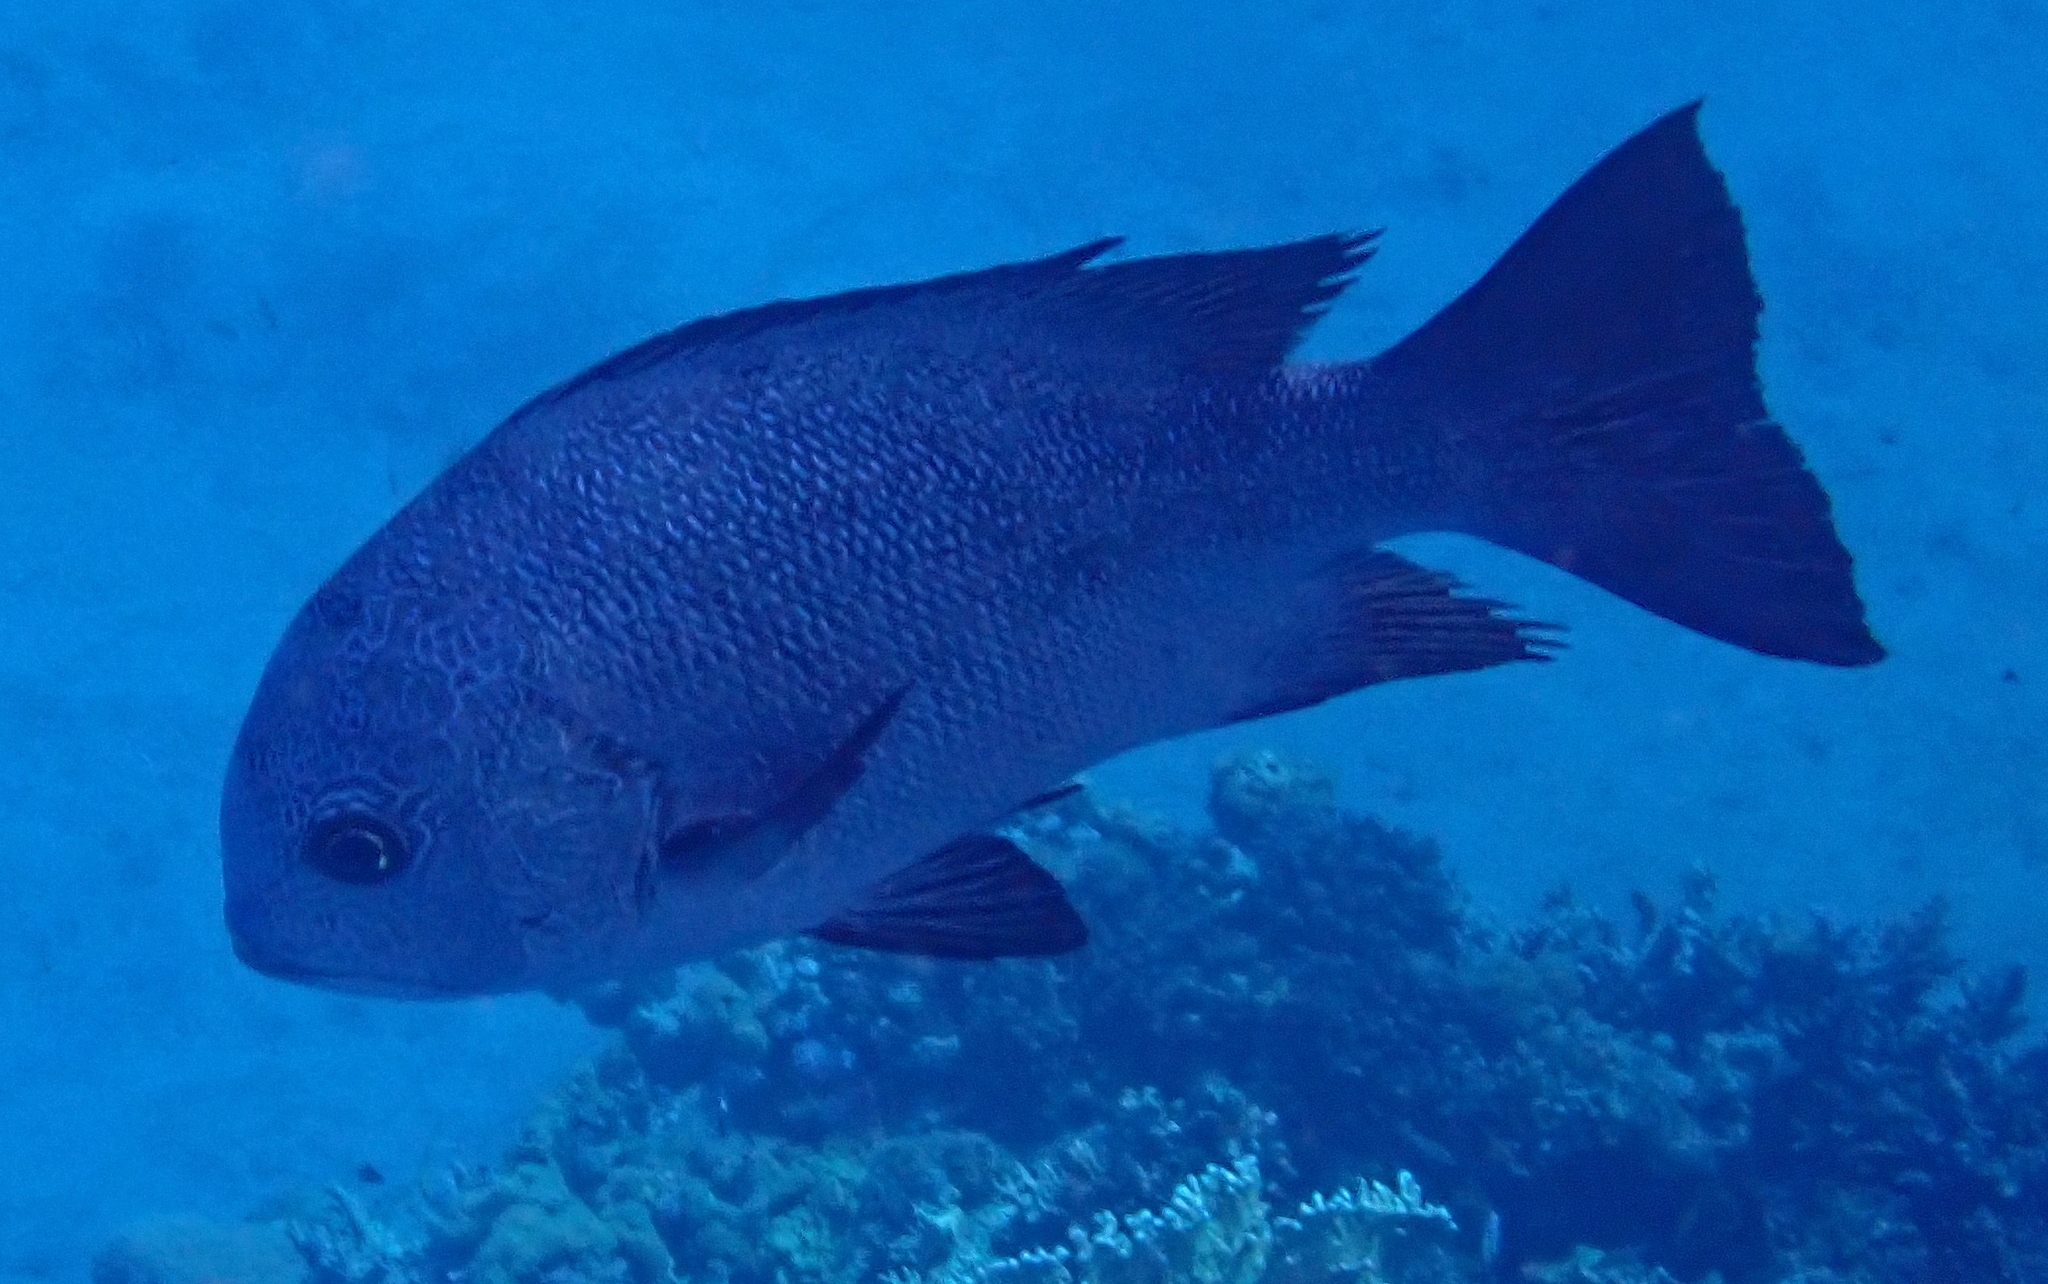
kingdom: Animalia
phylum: Chordata
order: Perciformes
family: Lutjanidae
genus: Macolor
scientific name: Macolor niger
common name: Black snapper
